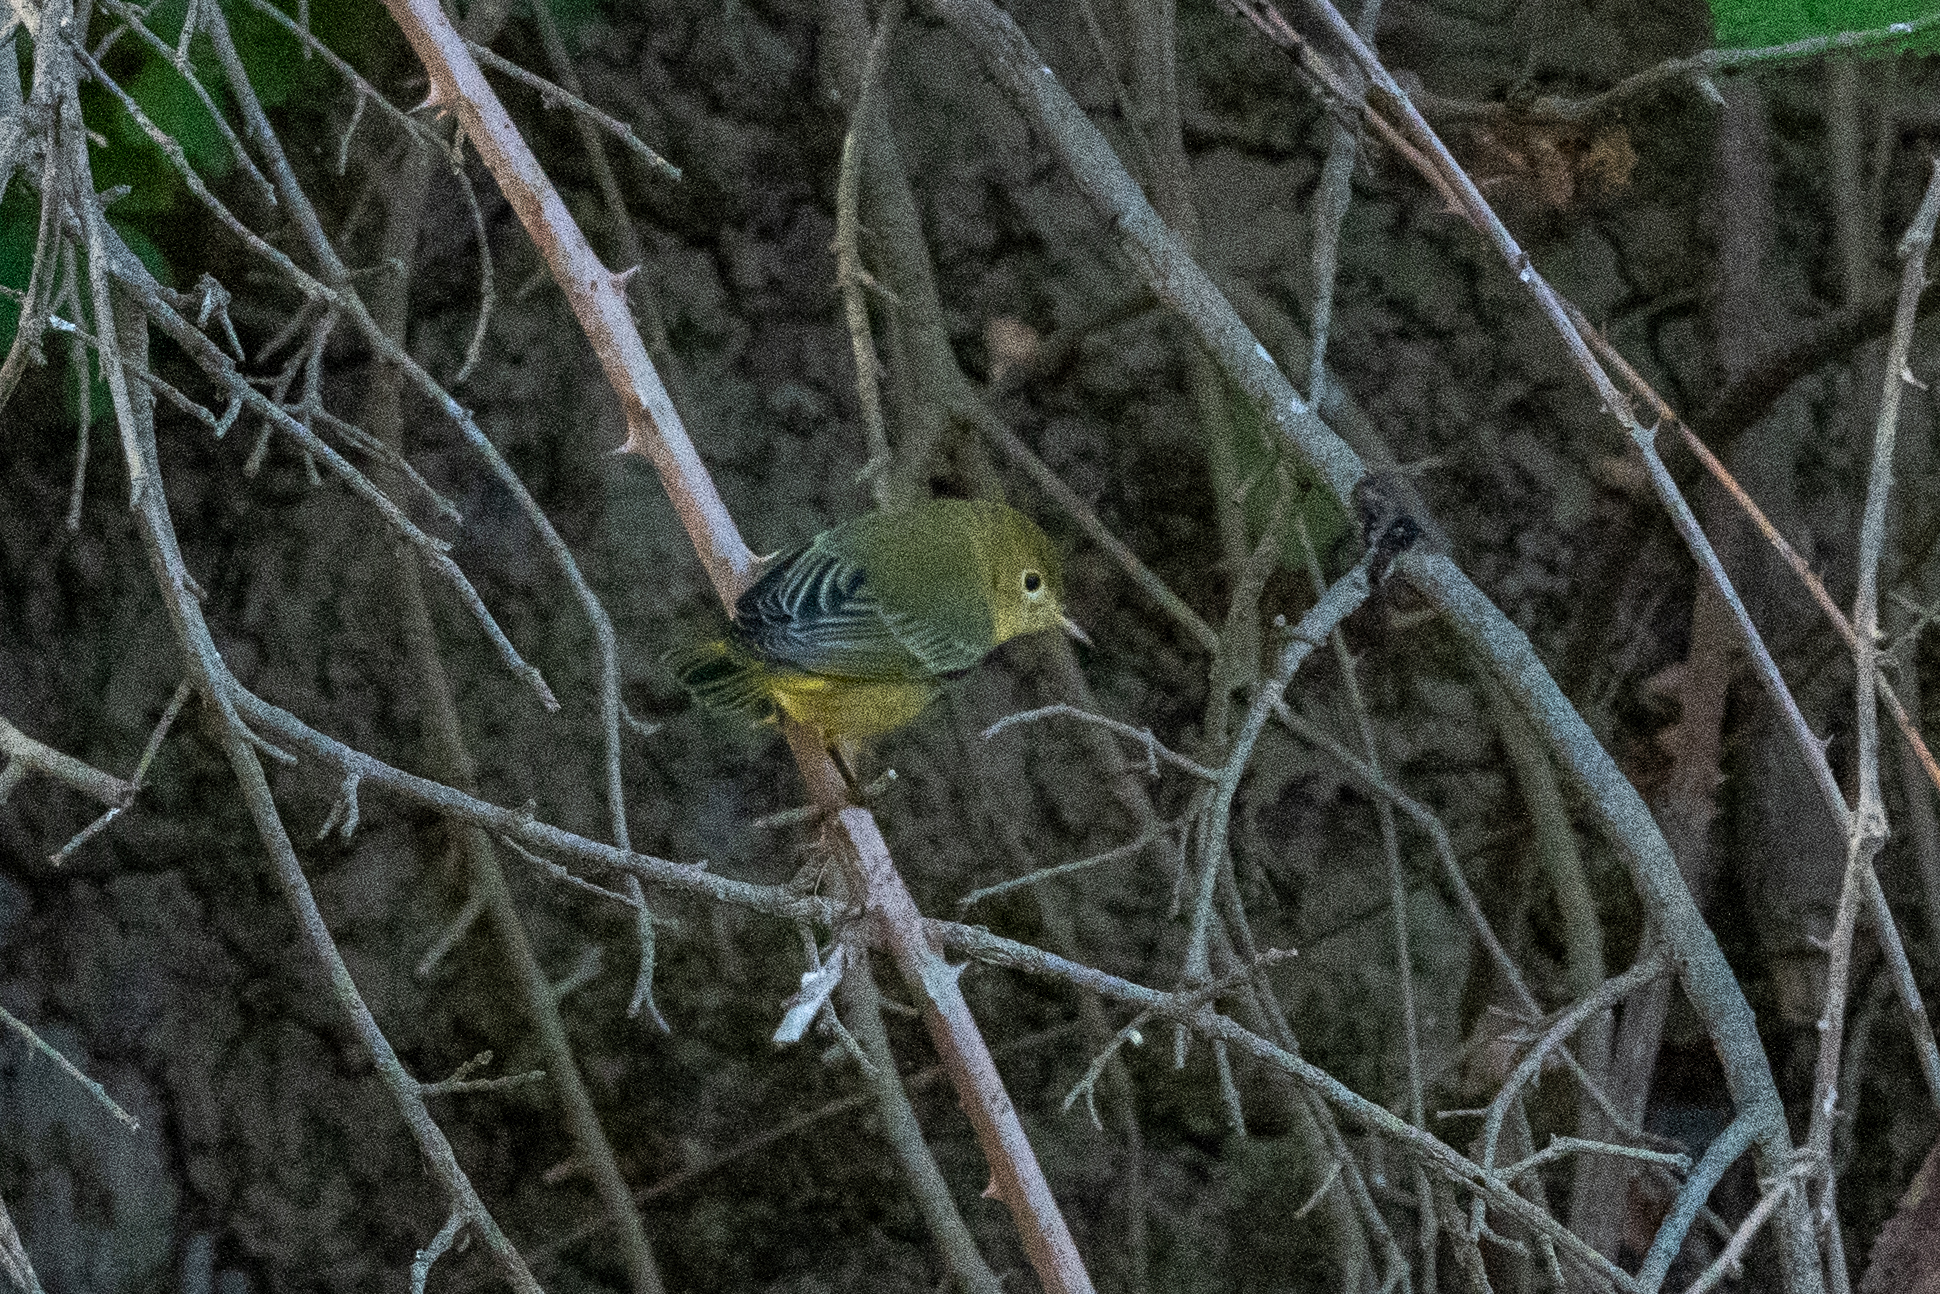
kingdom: Animalia
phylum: Chordata
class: Aves
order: Passeriformes
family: Parulidae
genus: Setophaga
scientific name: Setophaga petechia
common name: Yellow warbler
